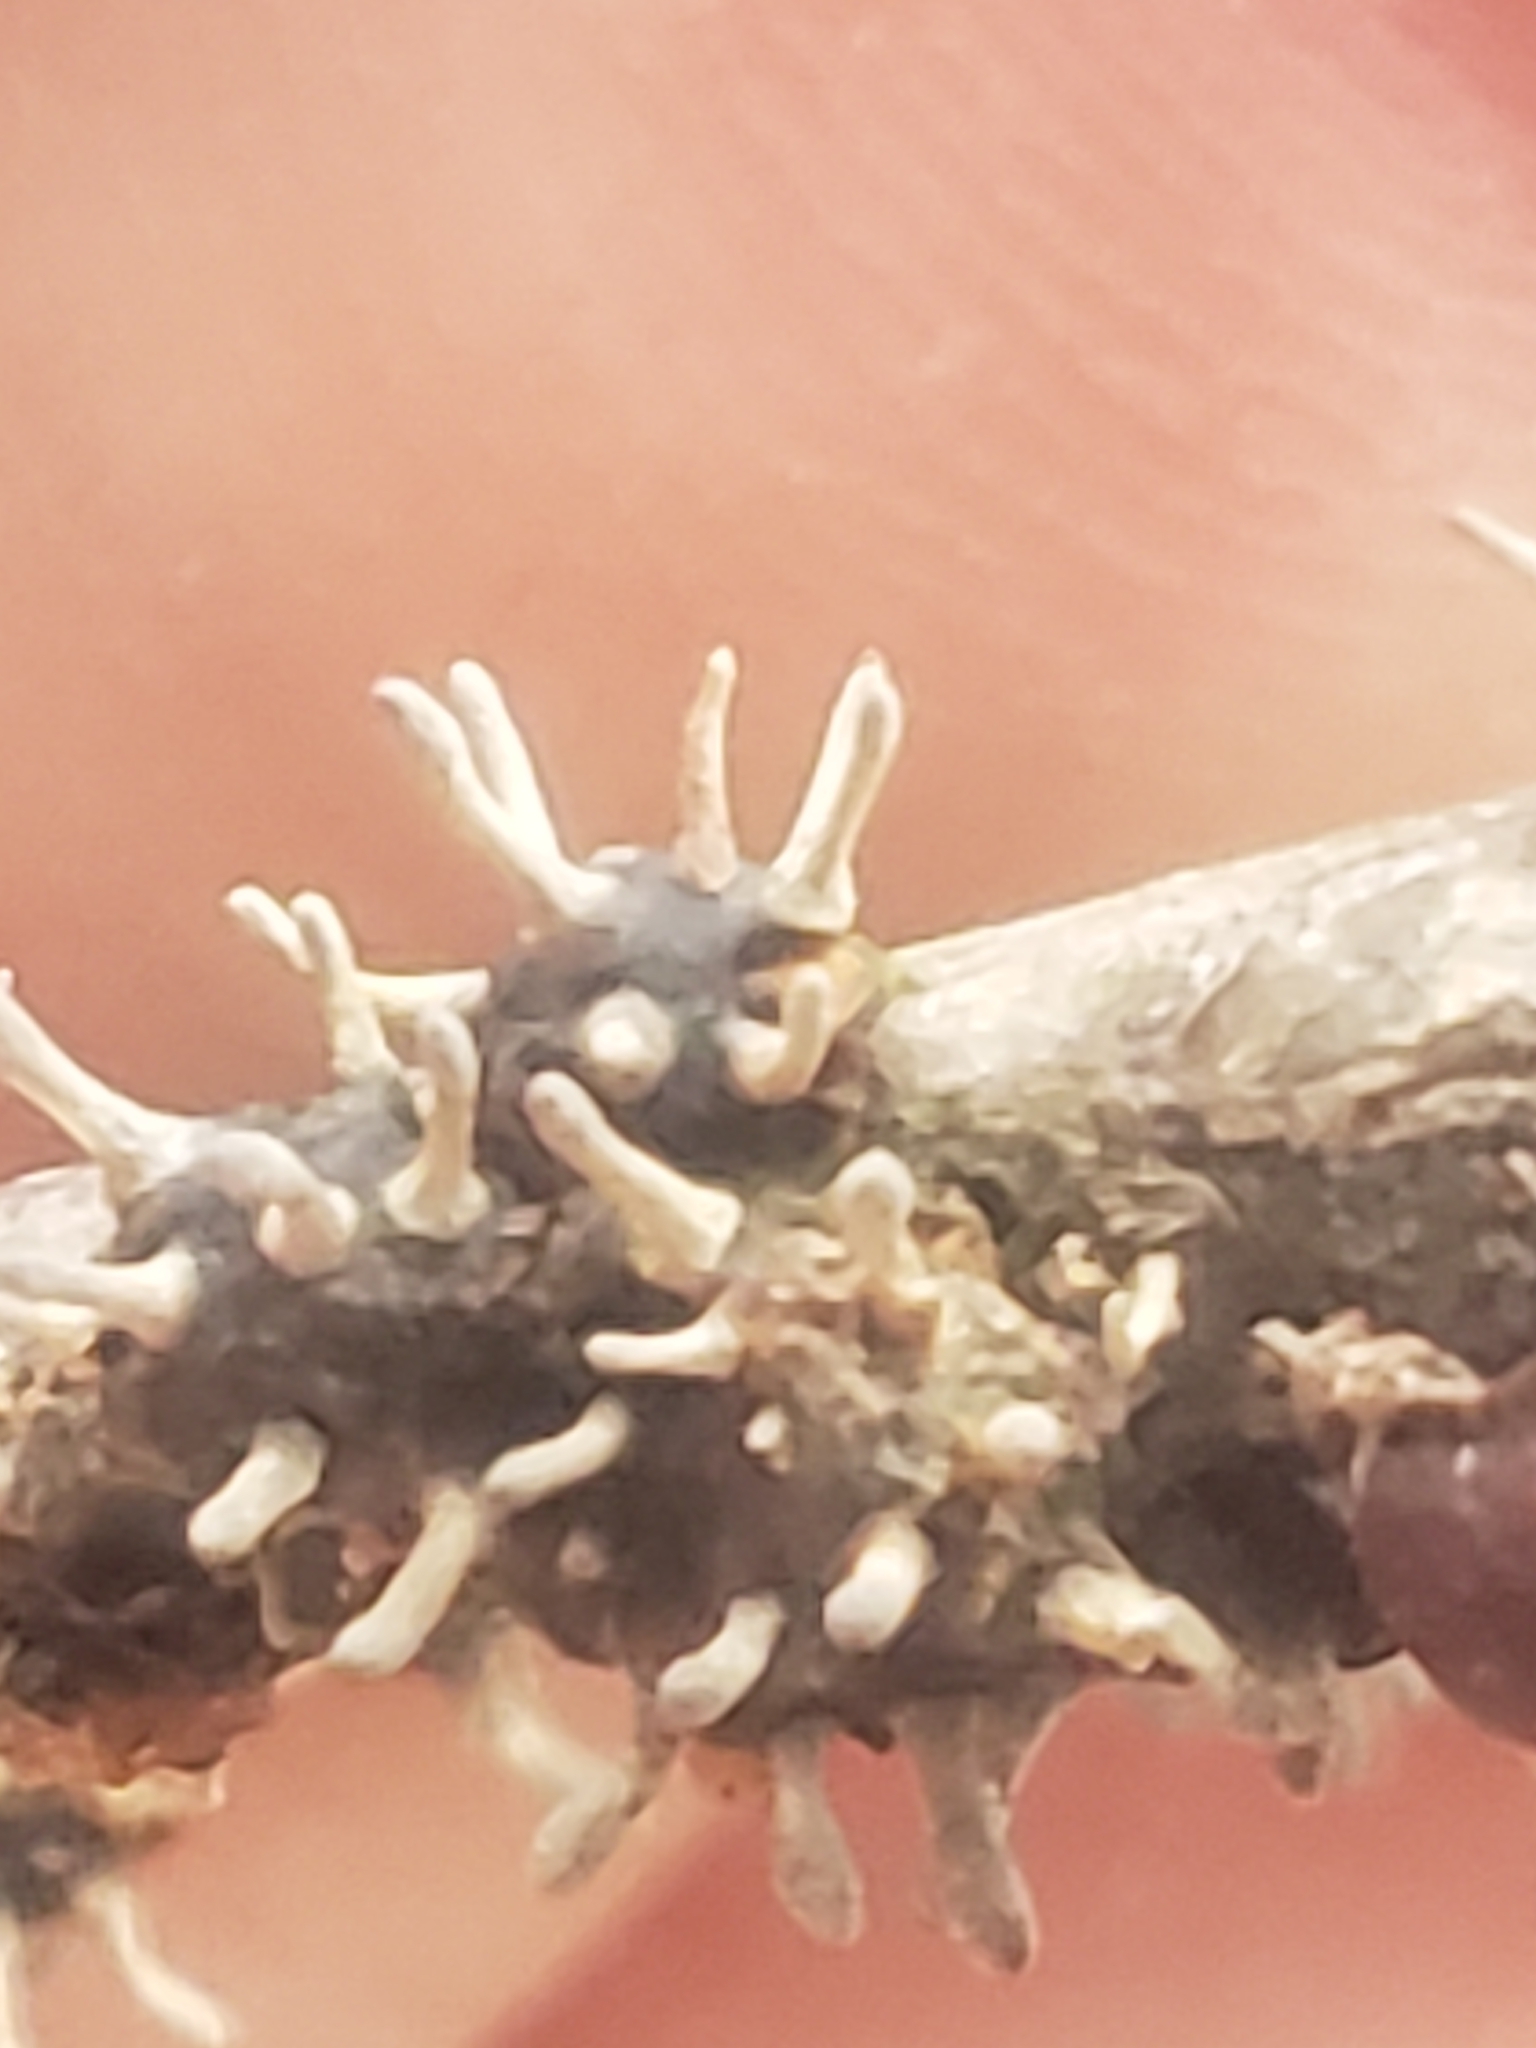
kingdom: Fungi
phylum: Ascomycota
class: Sordariomycetes
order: Hypocreales
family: Ophiocordycipitaceae
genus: Ophiocordyceps
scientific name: Ophiocordyceps clavulata
